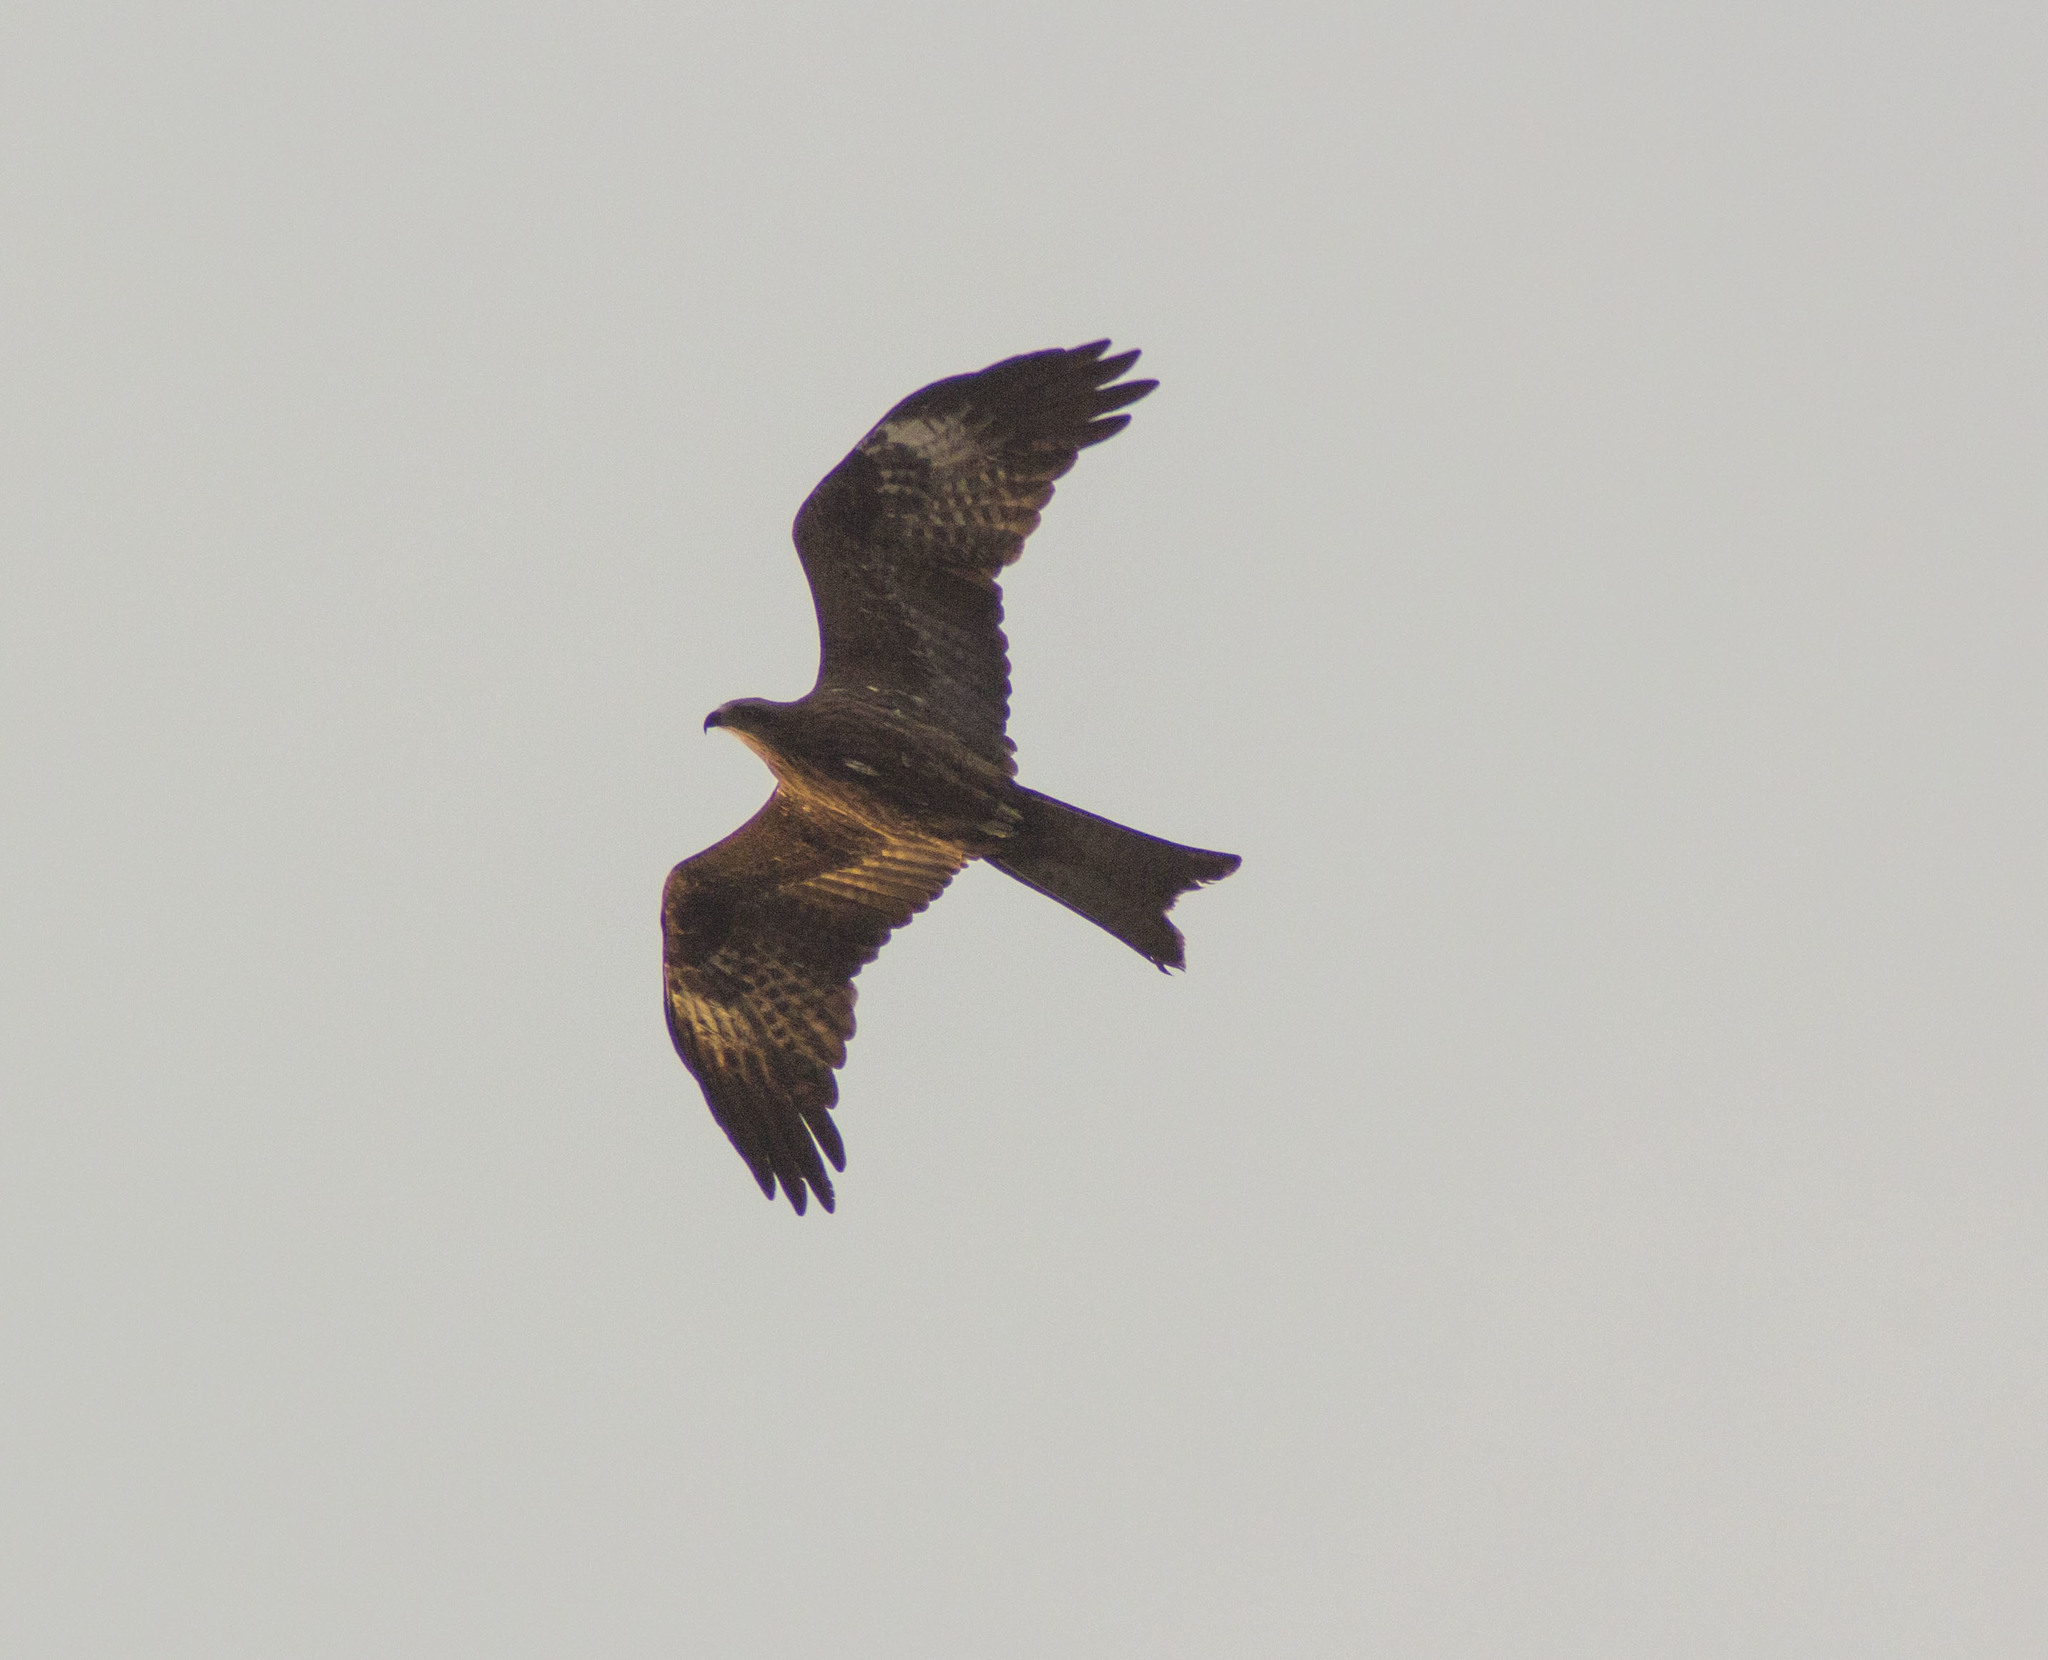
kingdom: Animalia
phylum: Chordata
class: Aves
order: Accipitriformes
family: Accipitridae
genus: Milvus
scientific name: Milvus migrans
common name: Black kite
